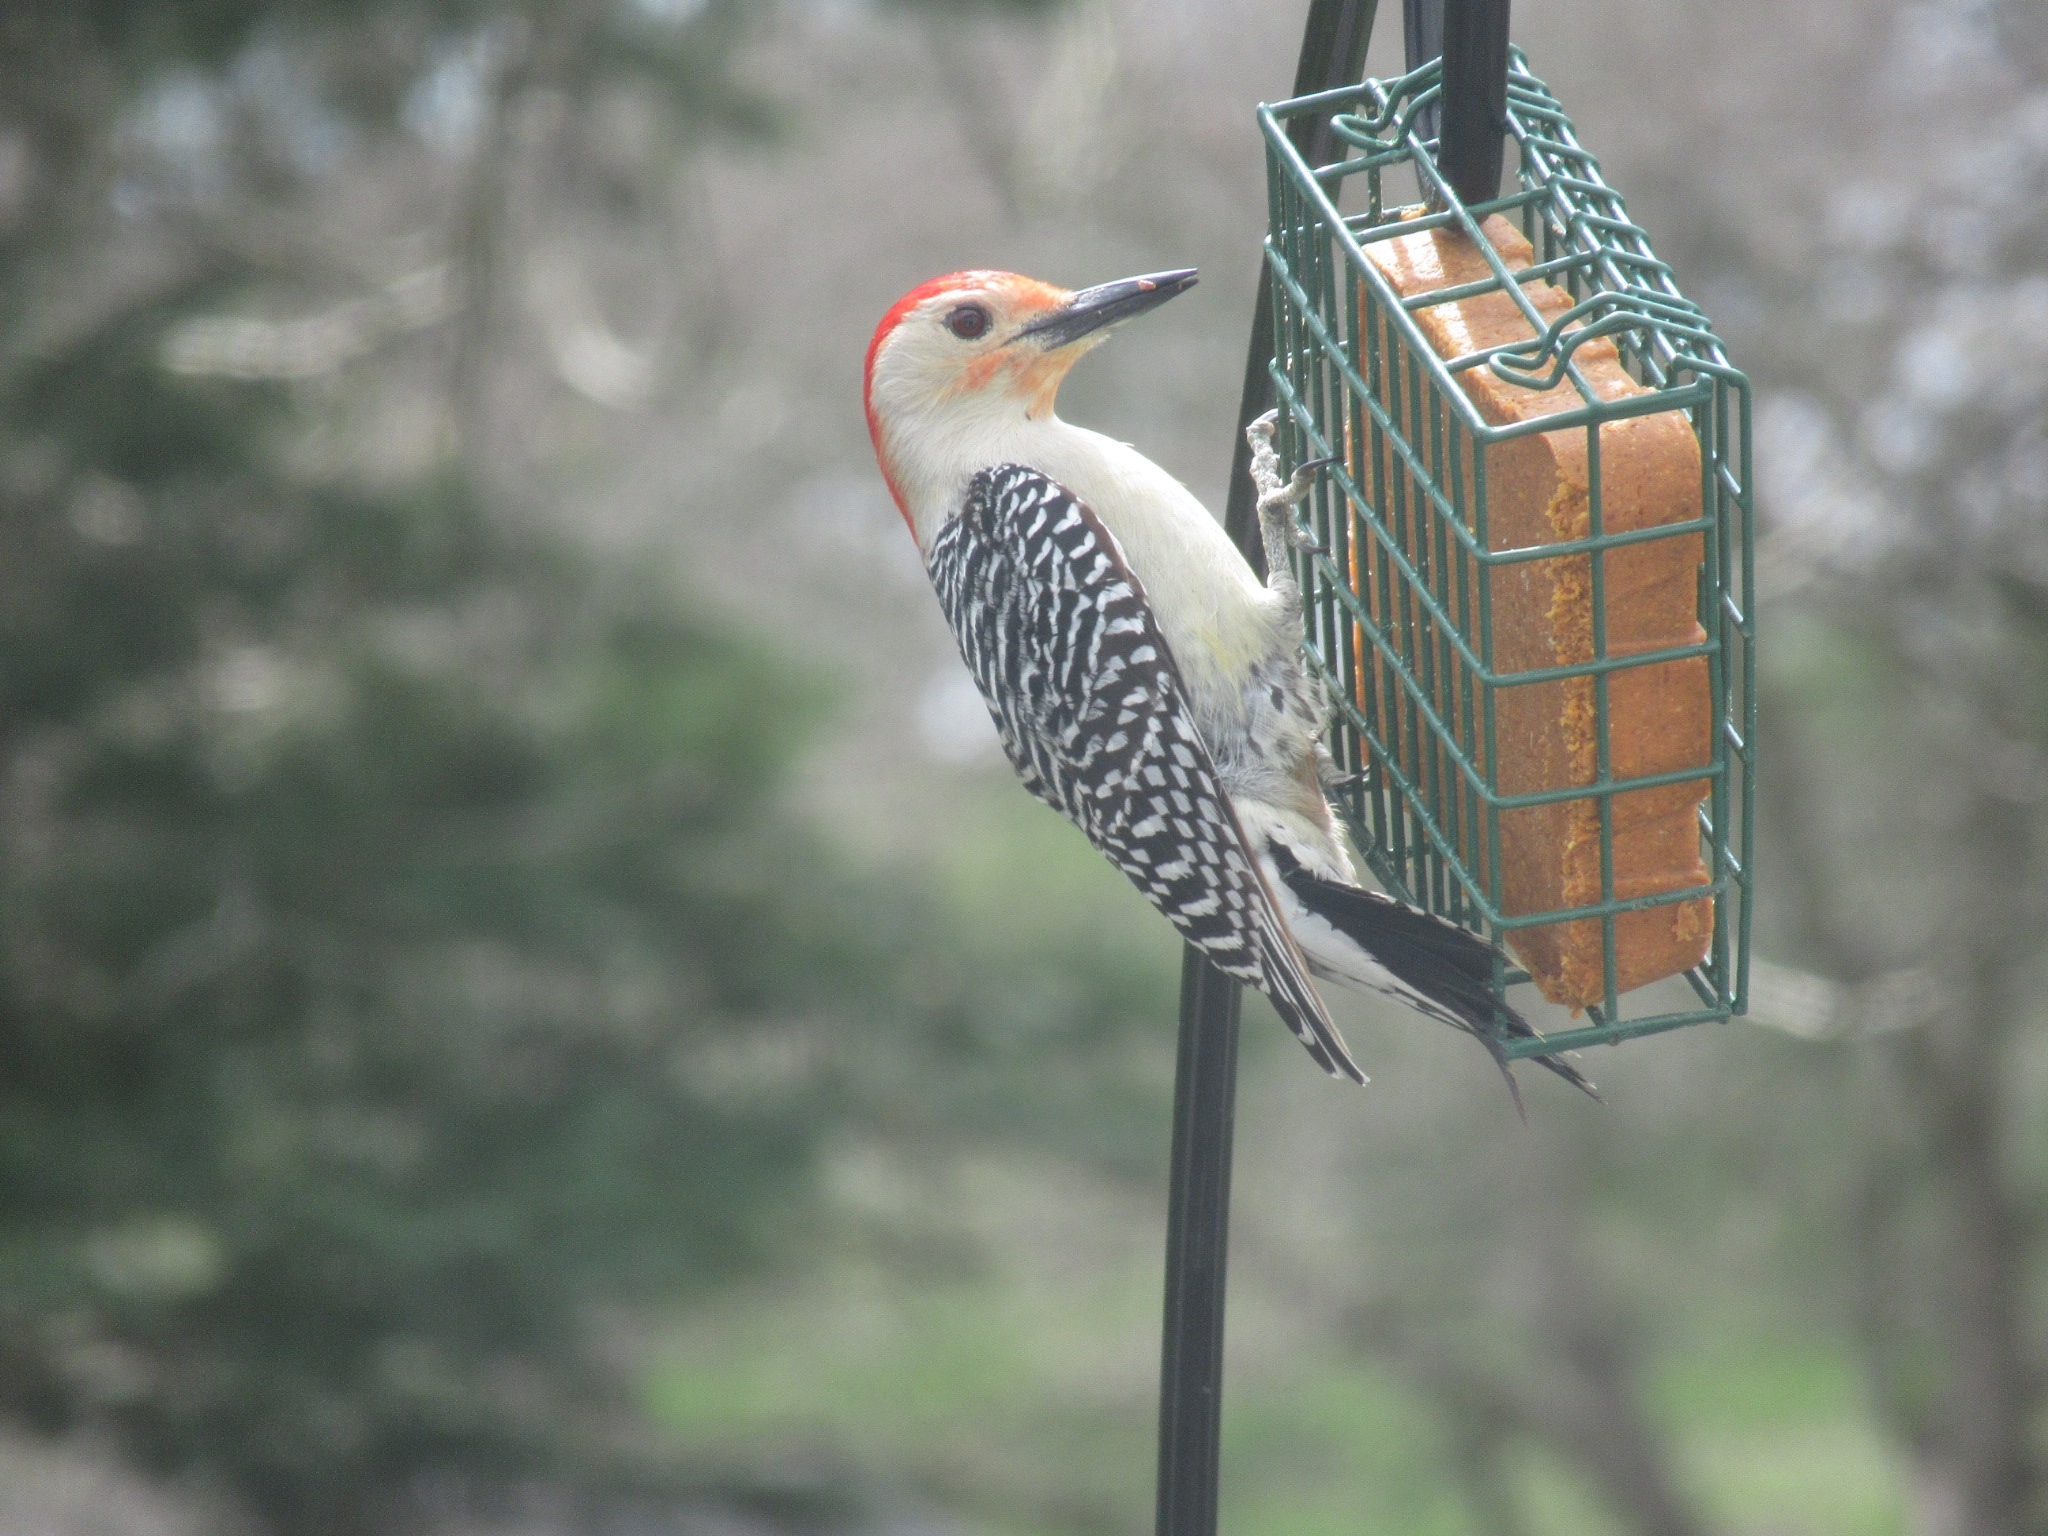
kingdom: Animalia
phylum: Chordata
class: Aves
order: Piciformes
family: Picidae
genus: Melanerpes
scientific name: Melanerpes carolinus
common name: Red-bellied woodpecker
